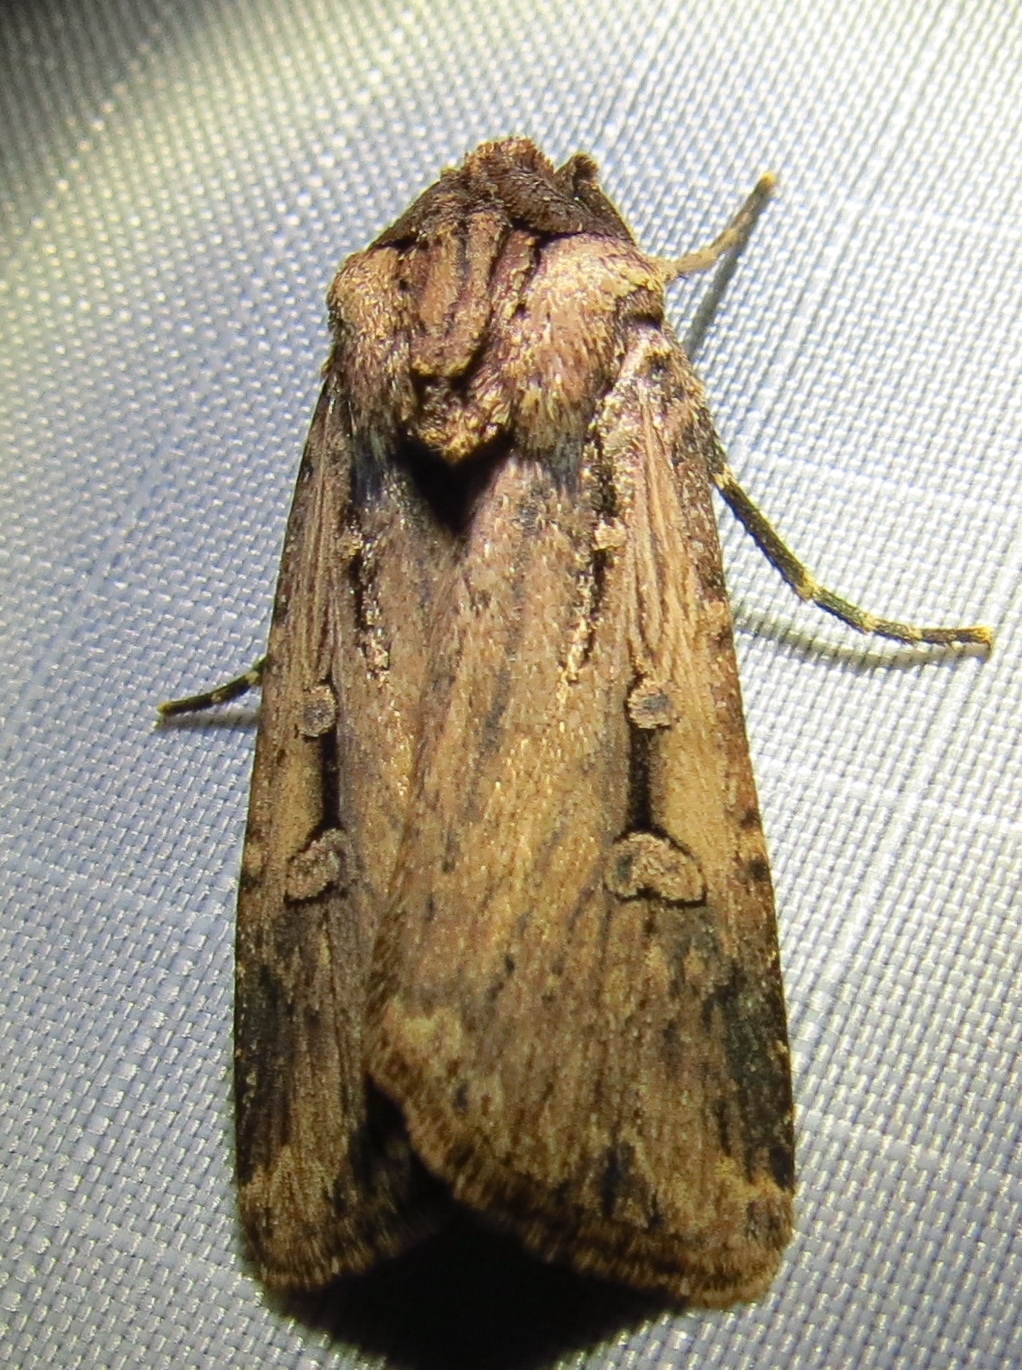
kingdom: Animalia
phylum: Arthropoda
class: Insecta
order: Lepidoptera
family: Noctuidae
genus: Feltia
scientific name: Feltia subterranea
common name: Granulate cutworm
